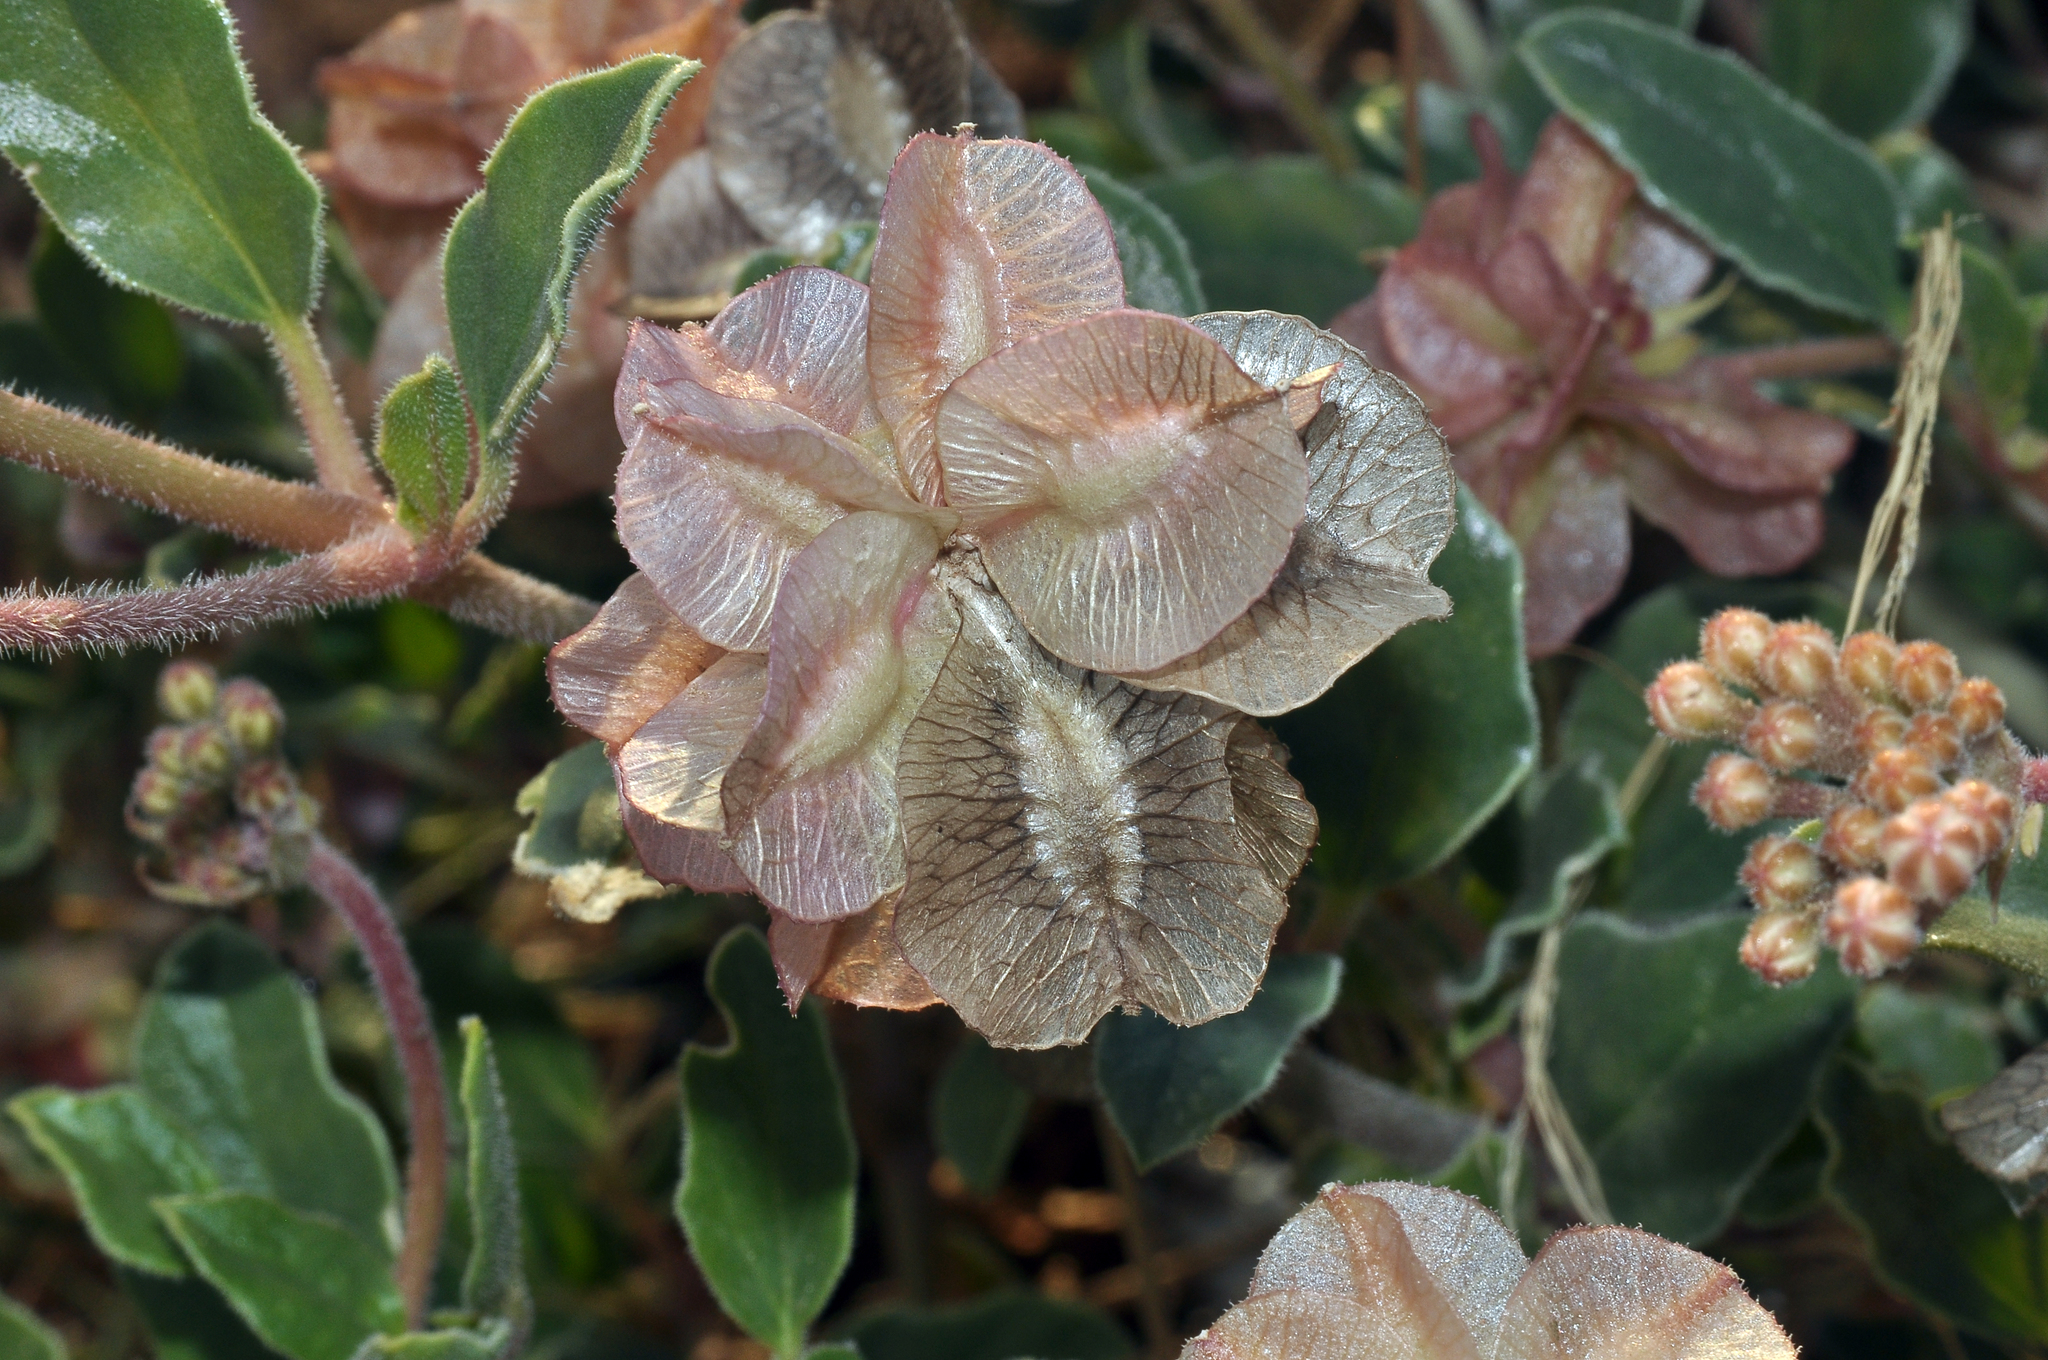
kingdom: Plantae
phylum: Tracheophyta
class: Magnoliopsida
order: Caryophyllales
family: Nyctaginaceae
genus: Tripterocalyx
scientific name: Tripterocalyx carneus
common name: Winged sandpuffs
